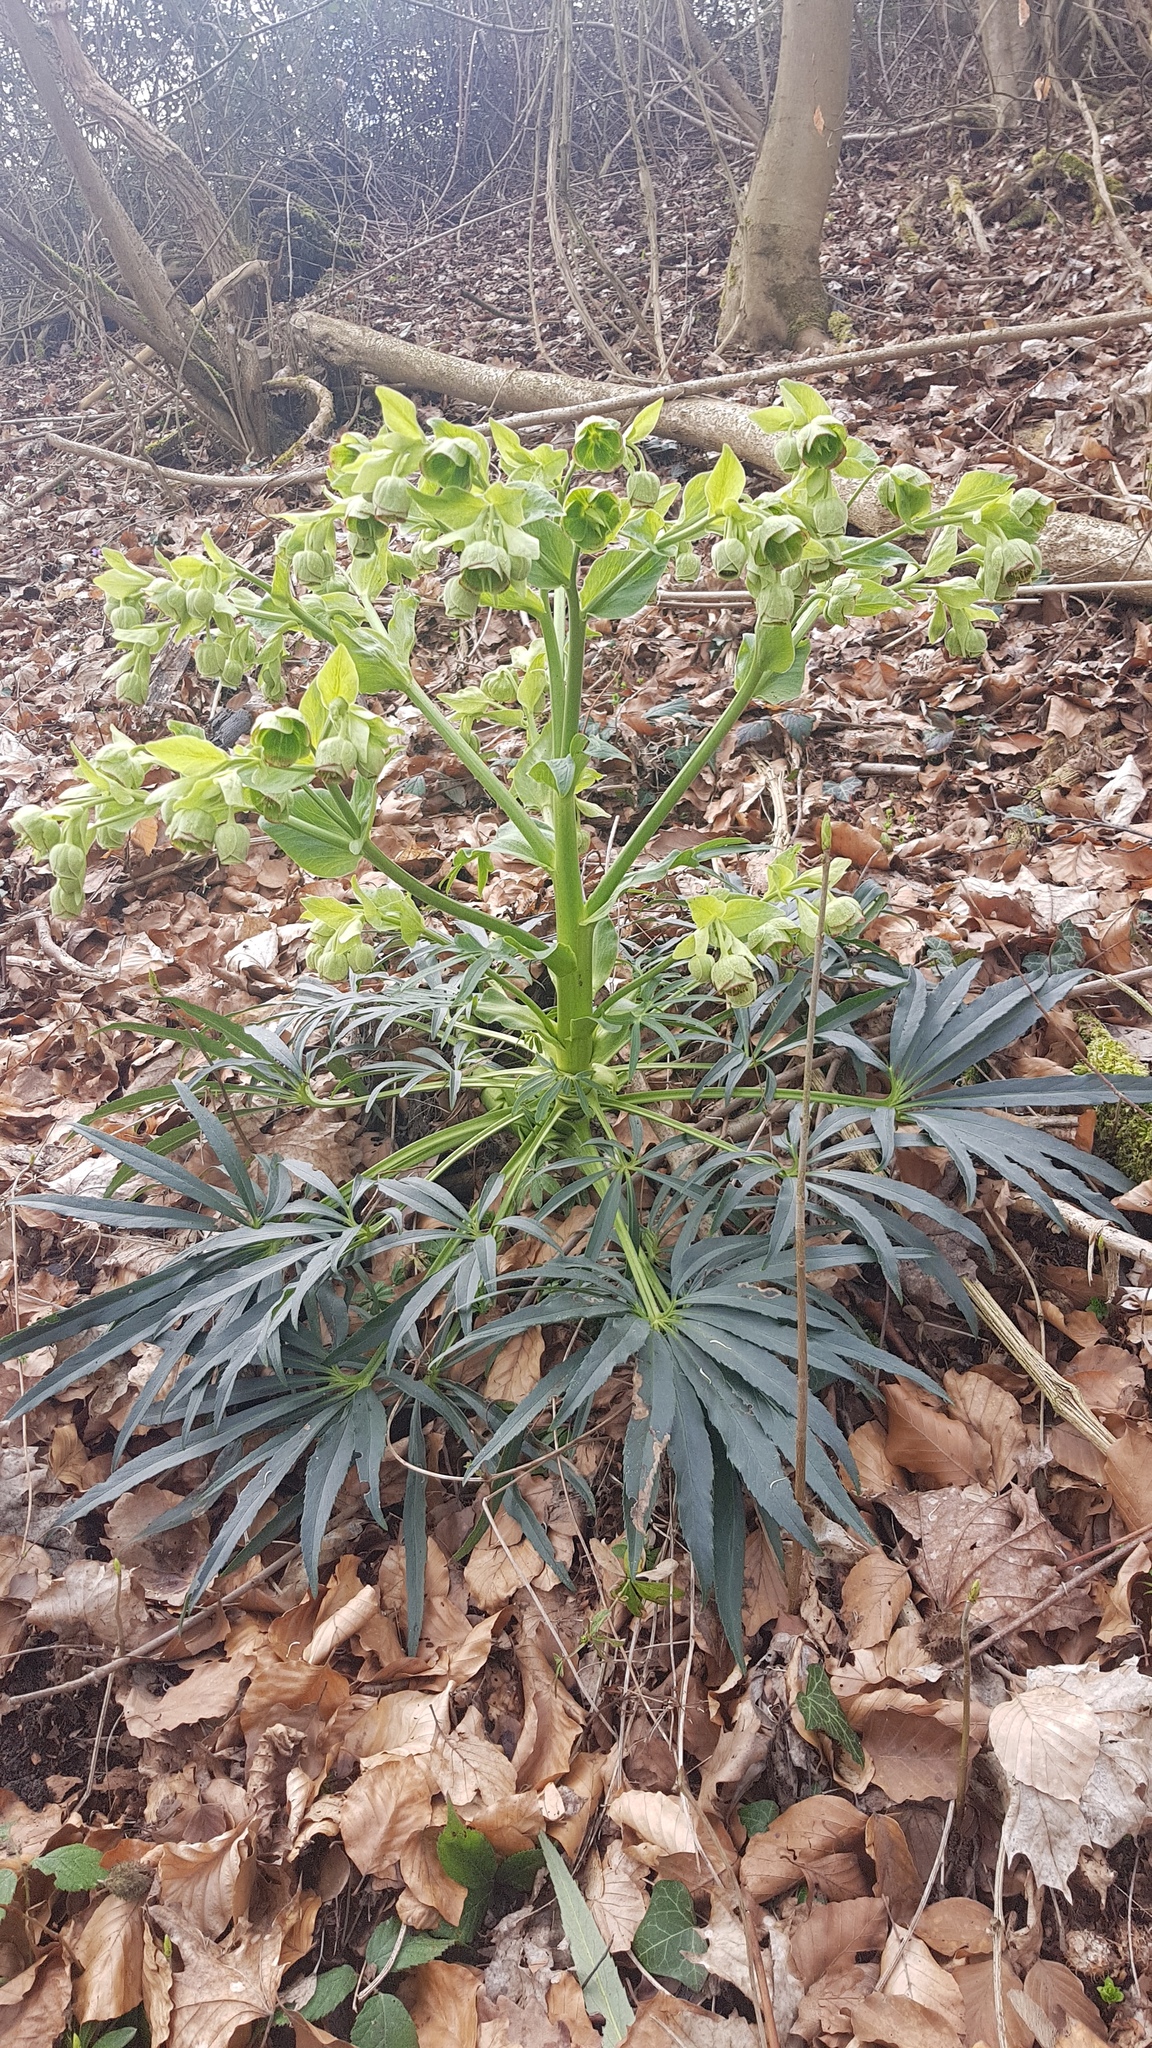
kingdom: Plantae
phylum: Tracheophyta
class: Magnoliopsida
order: Ranunculales
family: Ranunculaceae
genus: Helleborus
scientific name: Helleborus foetidus
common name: Stinking hellebore
